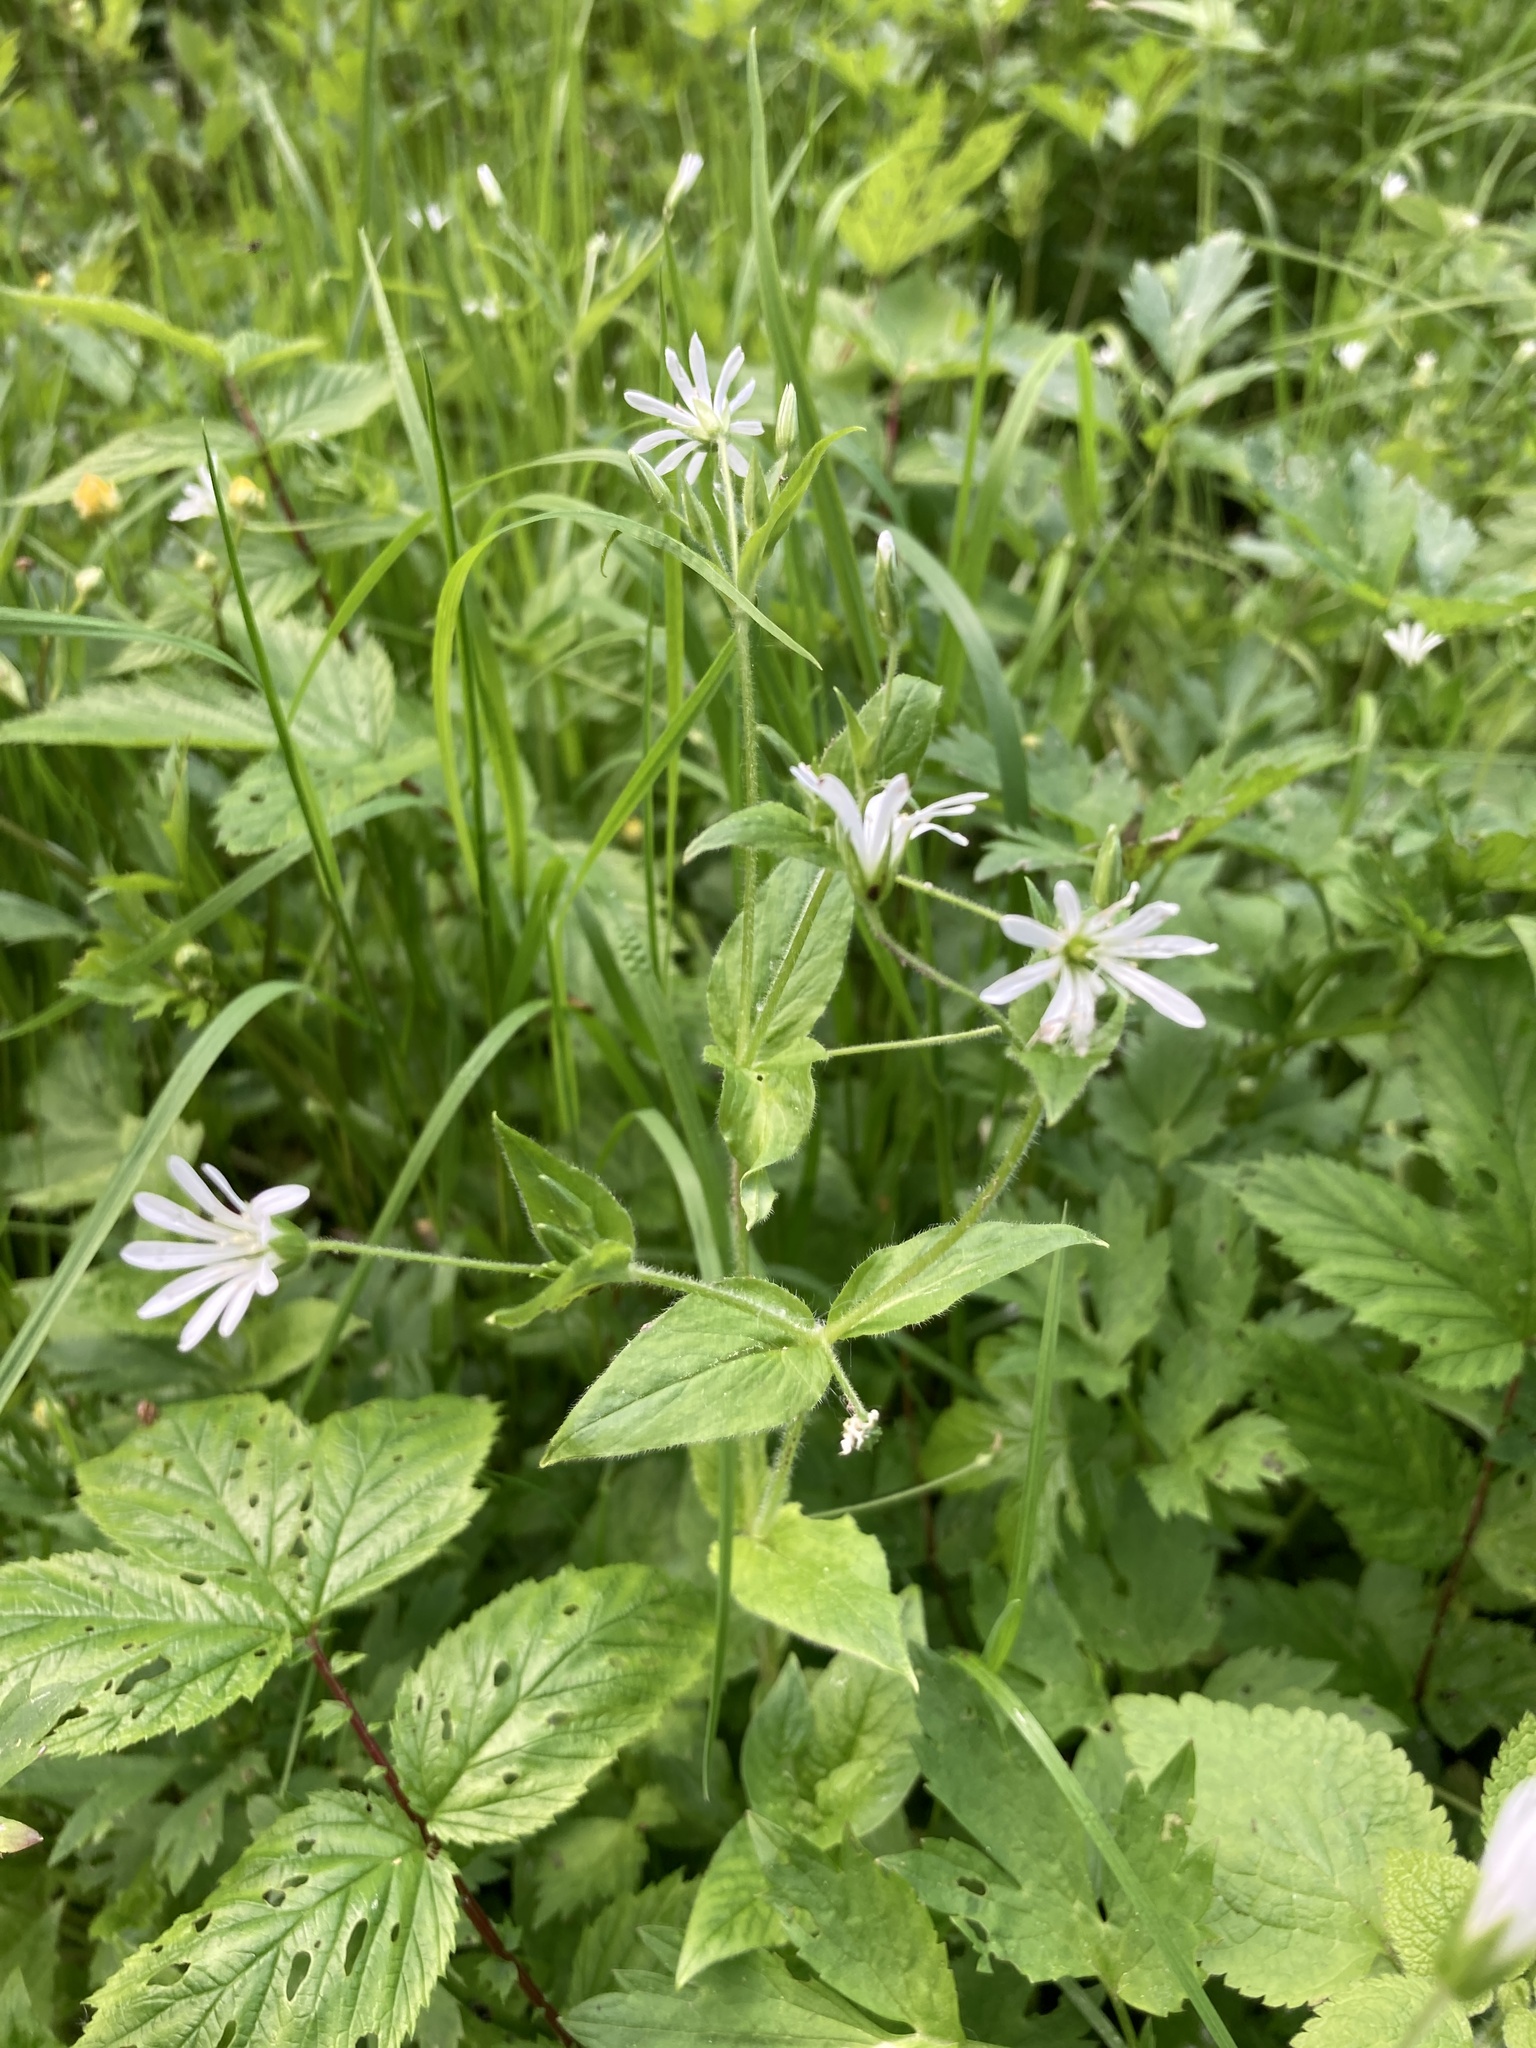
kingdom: Plantae
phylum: Tracheophyta
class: Magnoliopsida
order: Caryophyllales
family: Caryophyllaceae
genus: Stellaria
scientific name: Stellaria nemorum
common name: Wood stitchwort
